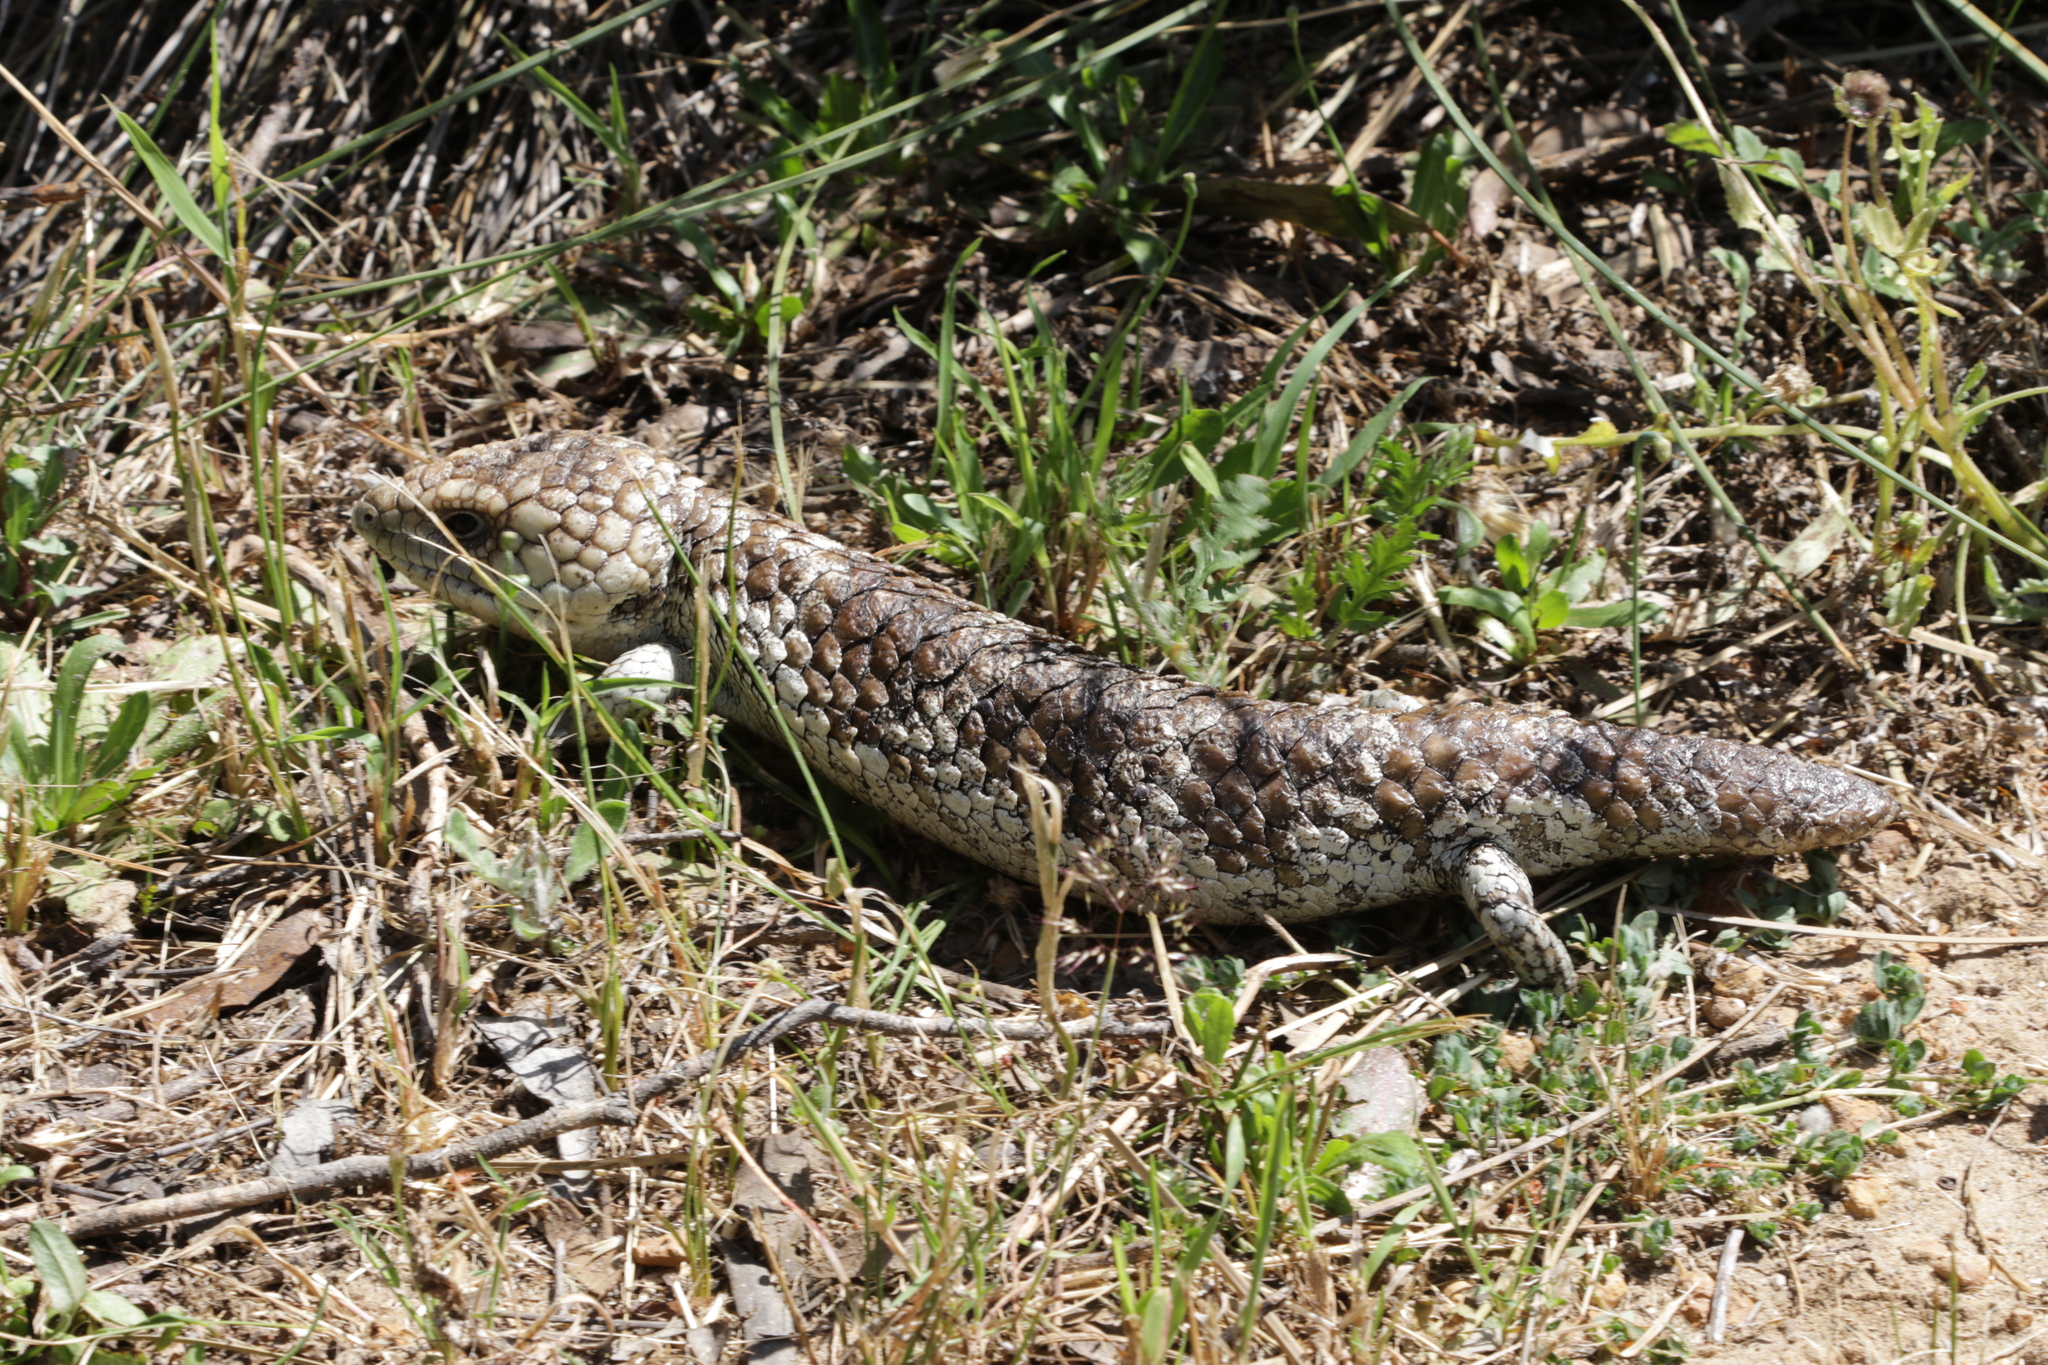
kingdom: Animalia
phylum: Chordata
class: Squamata
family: Scincidae
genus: Tiliqua
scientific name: Tiliqua rugosa
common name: Pinecone lizard
